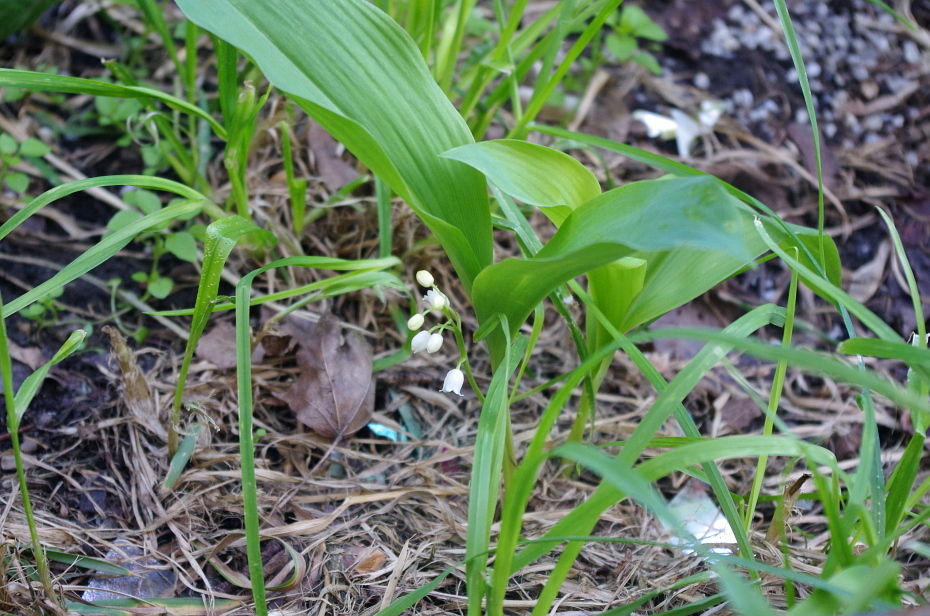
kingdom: Plantae
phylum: Tracheophyta
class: Liliopsida
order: Asparagales
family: Asparagaceae
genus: Convallaria
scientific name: Convallaria majalis
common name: Lily-of-the-valley
